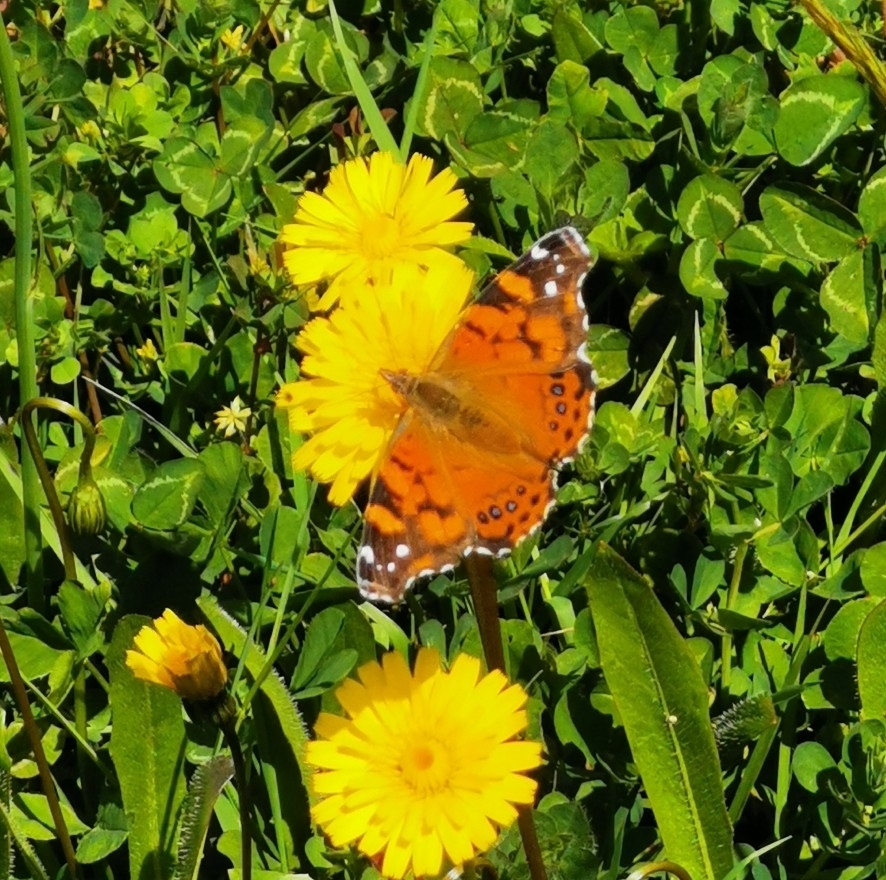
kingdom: Animalia
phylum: Arthropoda
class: Insecta
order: Lepidoptera
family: Nymphalidae
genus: Vanessa
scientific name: Vanessa carye
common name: Subtropical lady
